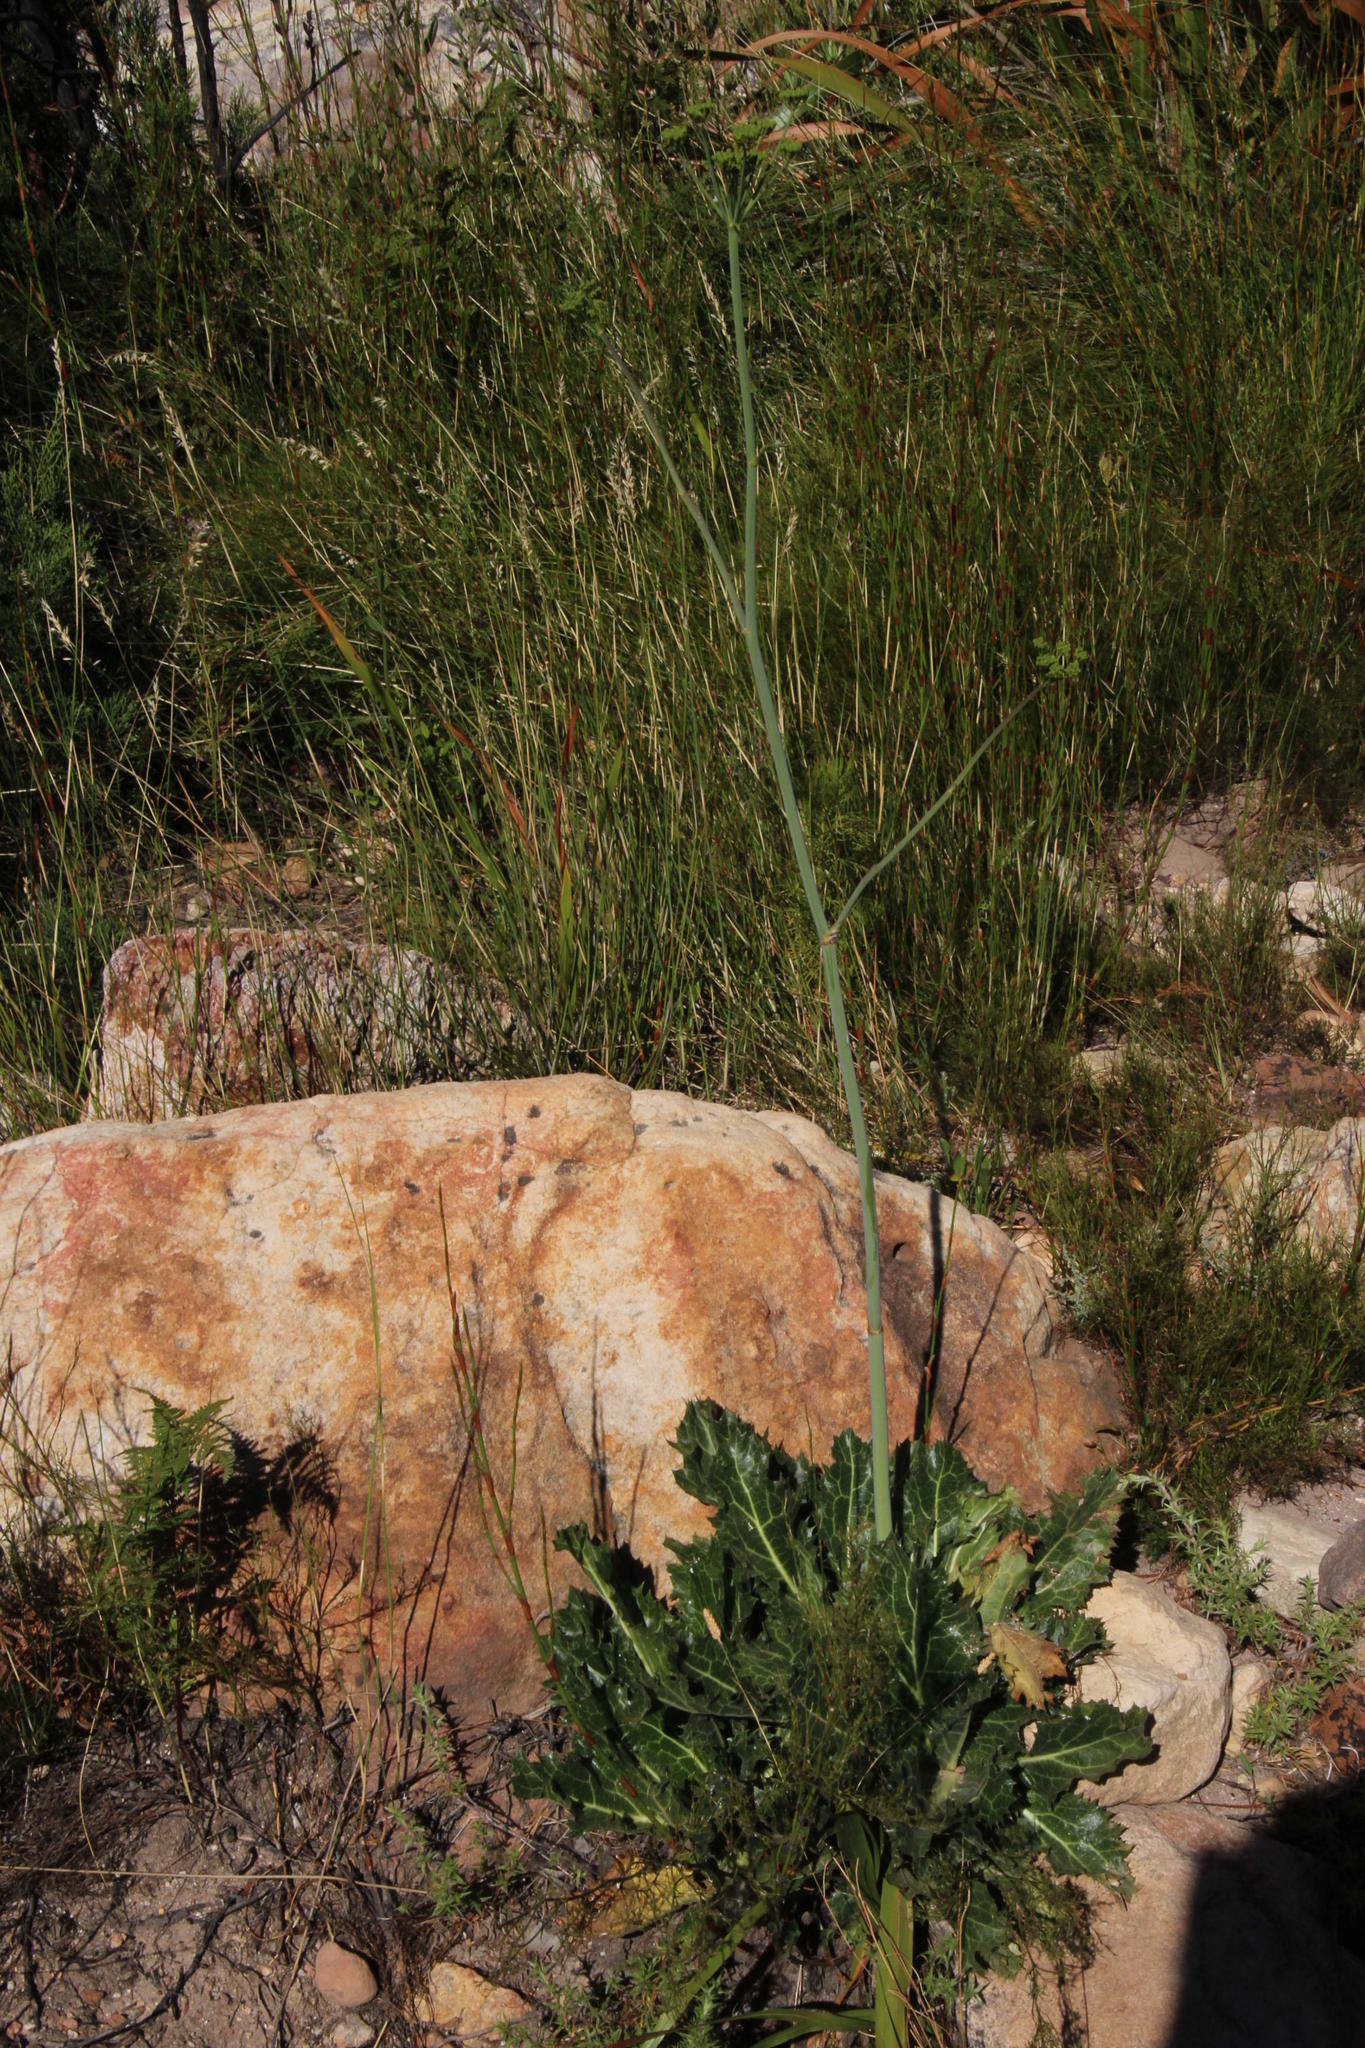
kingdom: Plantae
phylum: Tracheophyta
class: Magnoliopsida
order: Apiales
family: Apiaceae
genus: Lichtensteinia
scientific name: Lichtensteinia lacera
